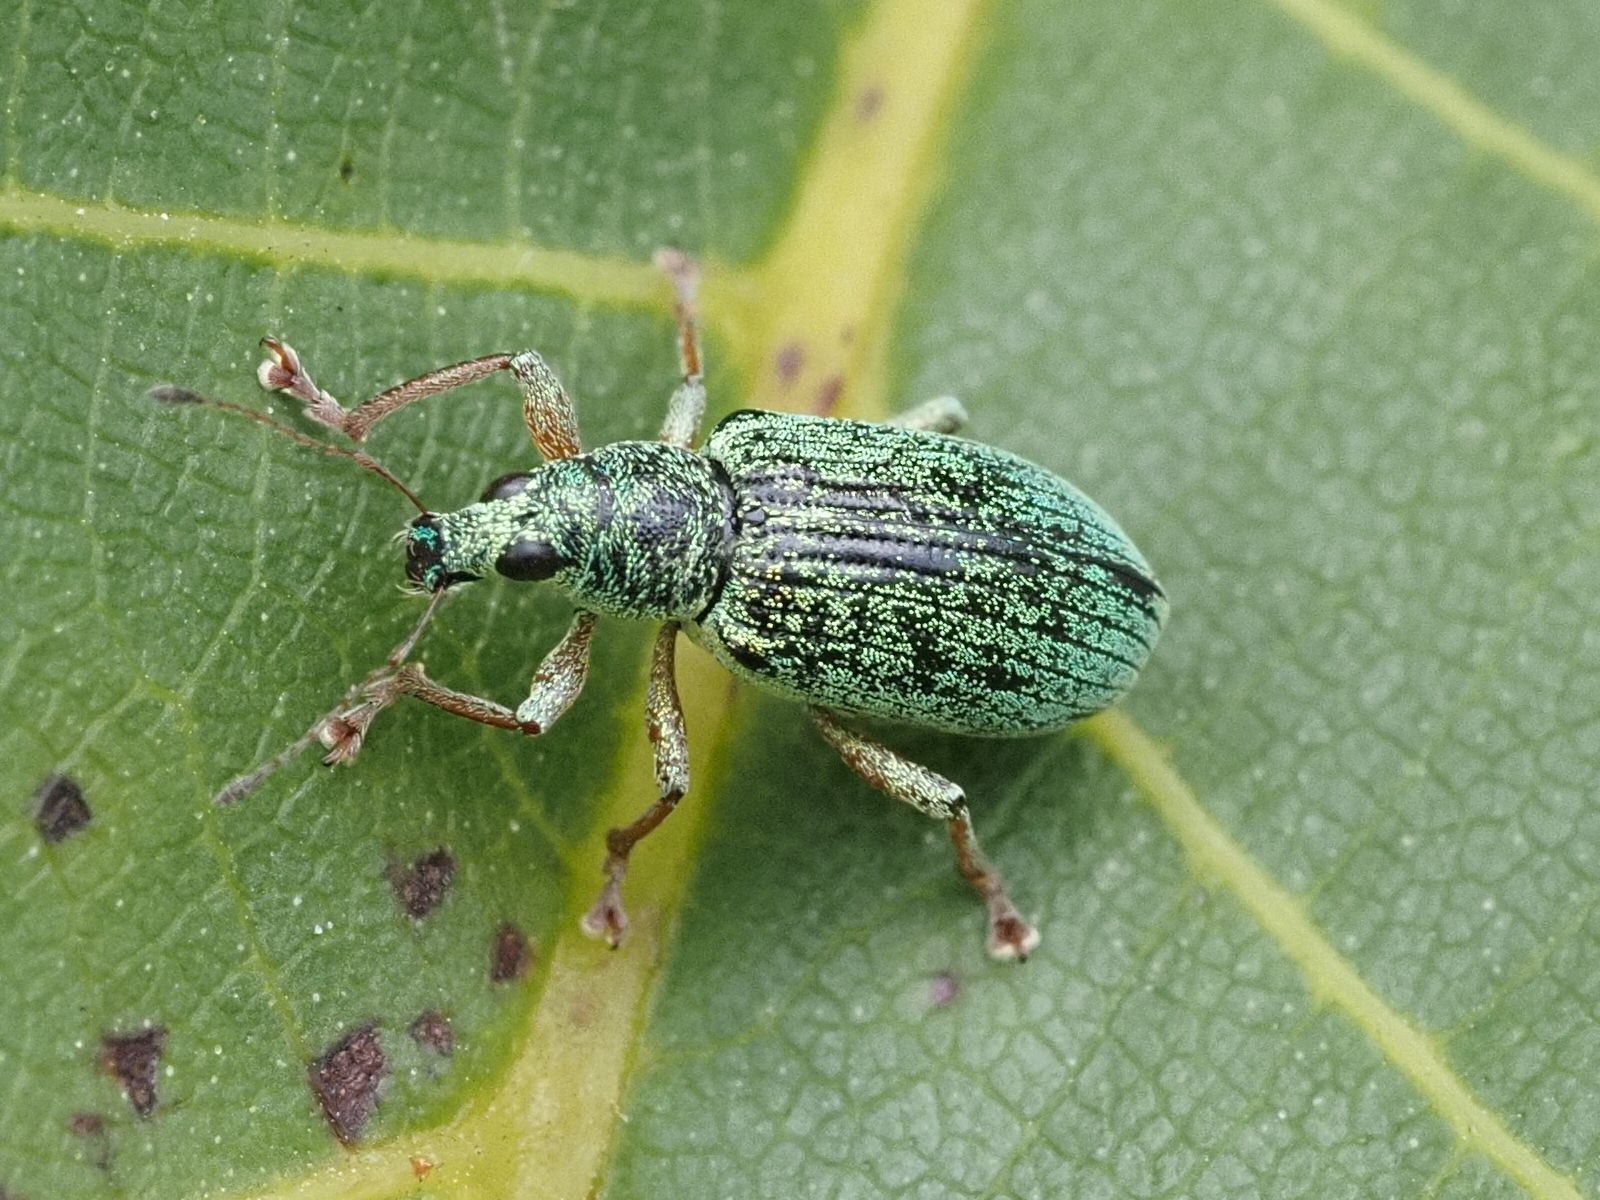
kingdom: Animalia
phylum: Arthropoda
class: Insecta
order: Coleoptera
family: Curculionidae
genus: Polydrusus
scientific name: Polydrusus formosus
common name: Weevil
